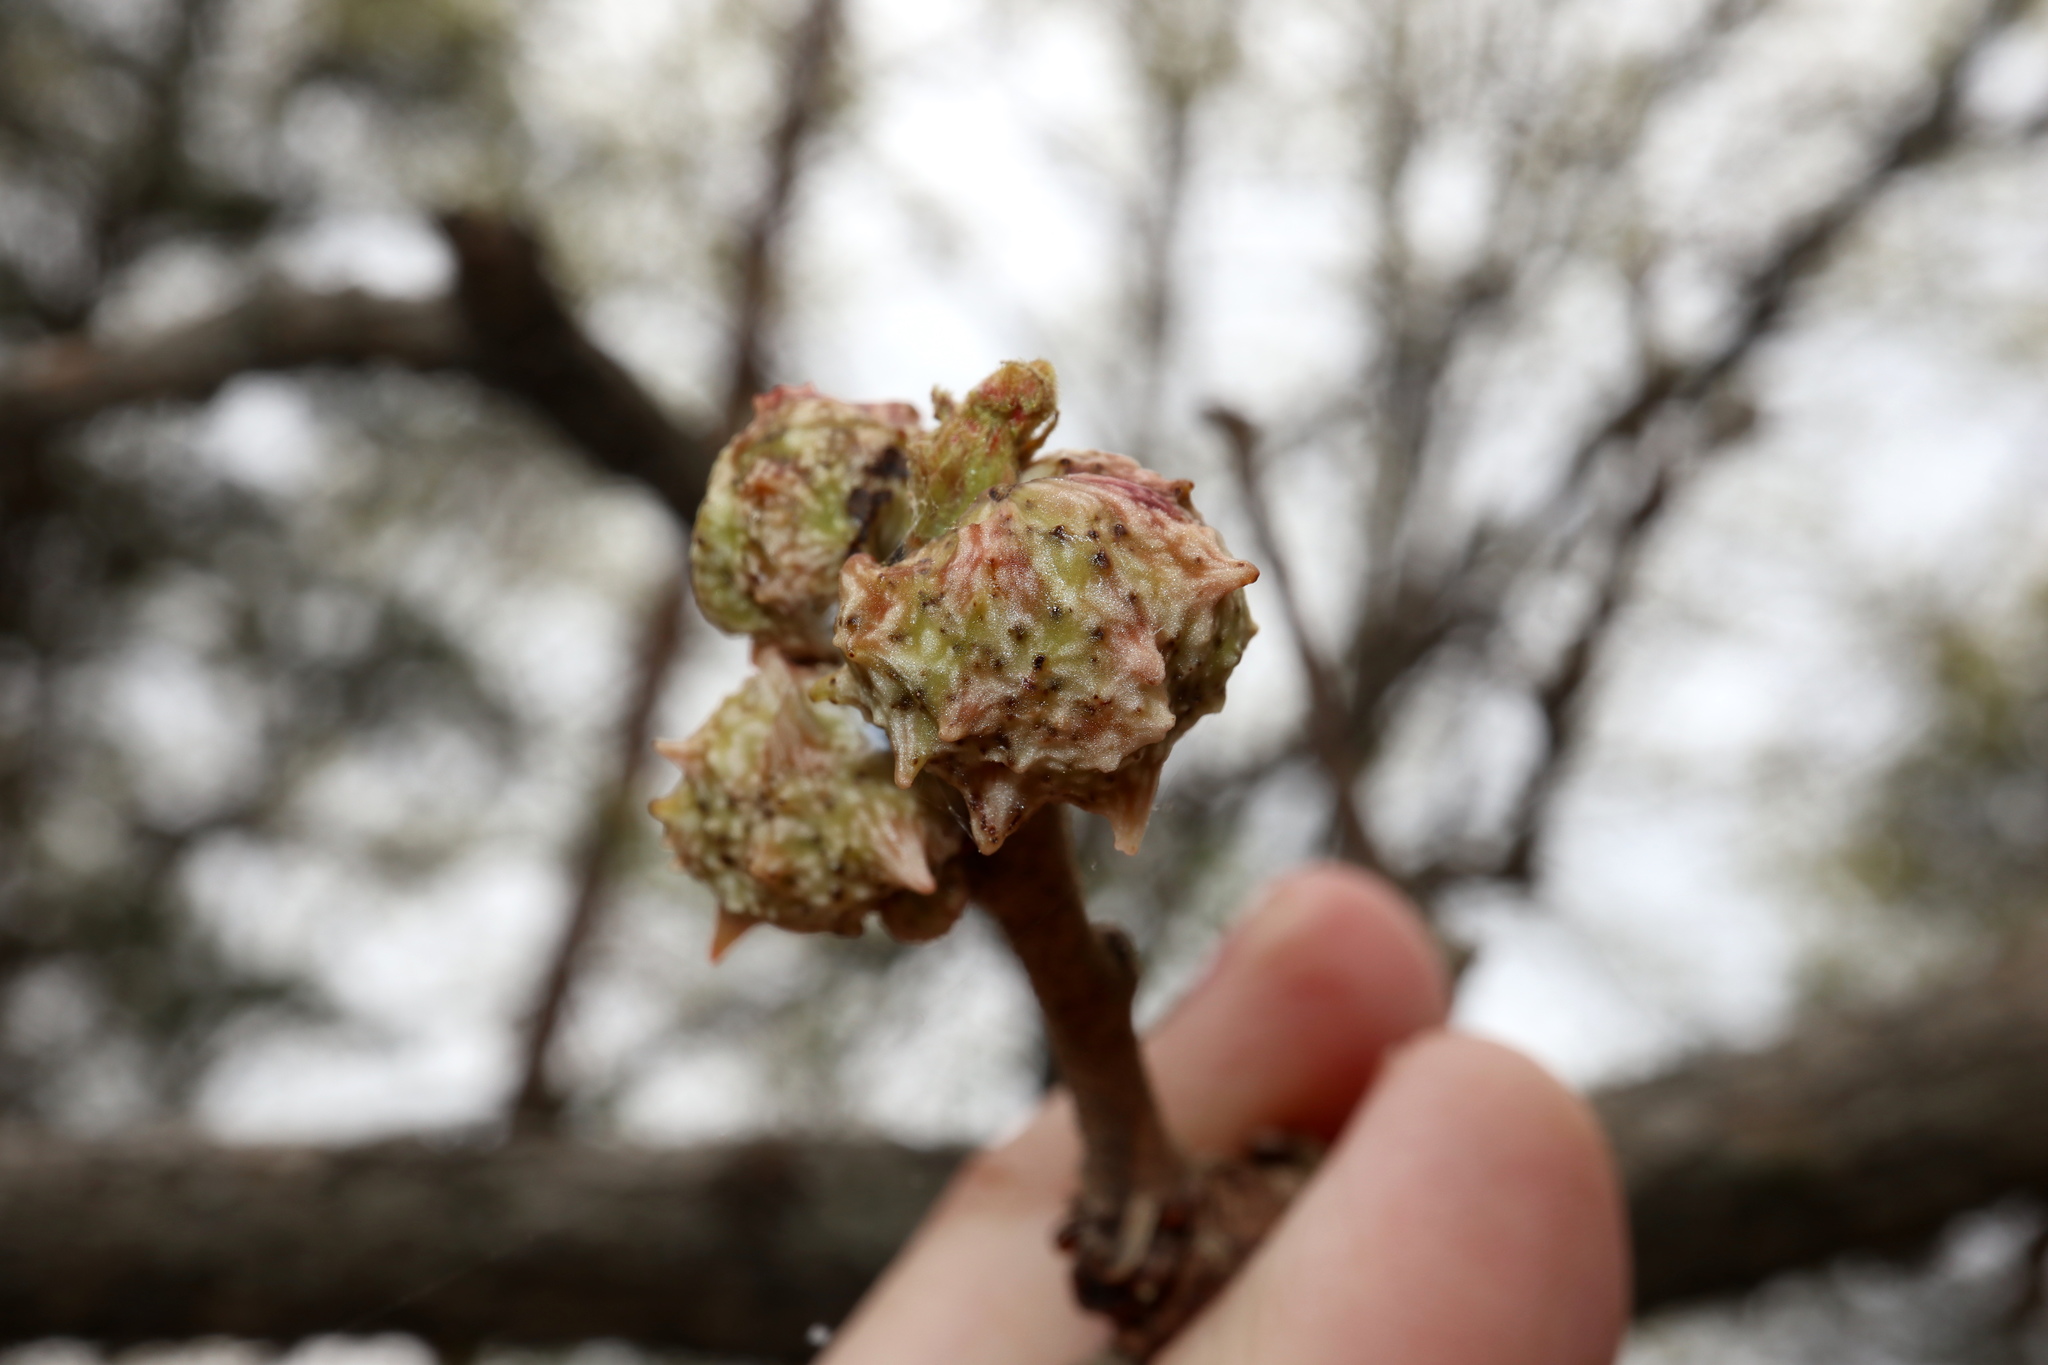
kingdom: Animalia
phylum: Arthropoda
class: Insecta
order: Hymenoptera
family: Cynipidae
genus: Andricus
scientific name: Andricus
